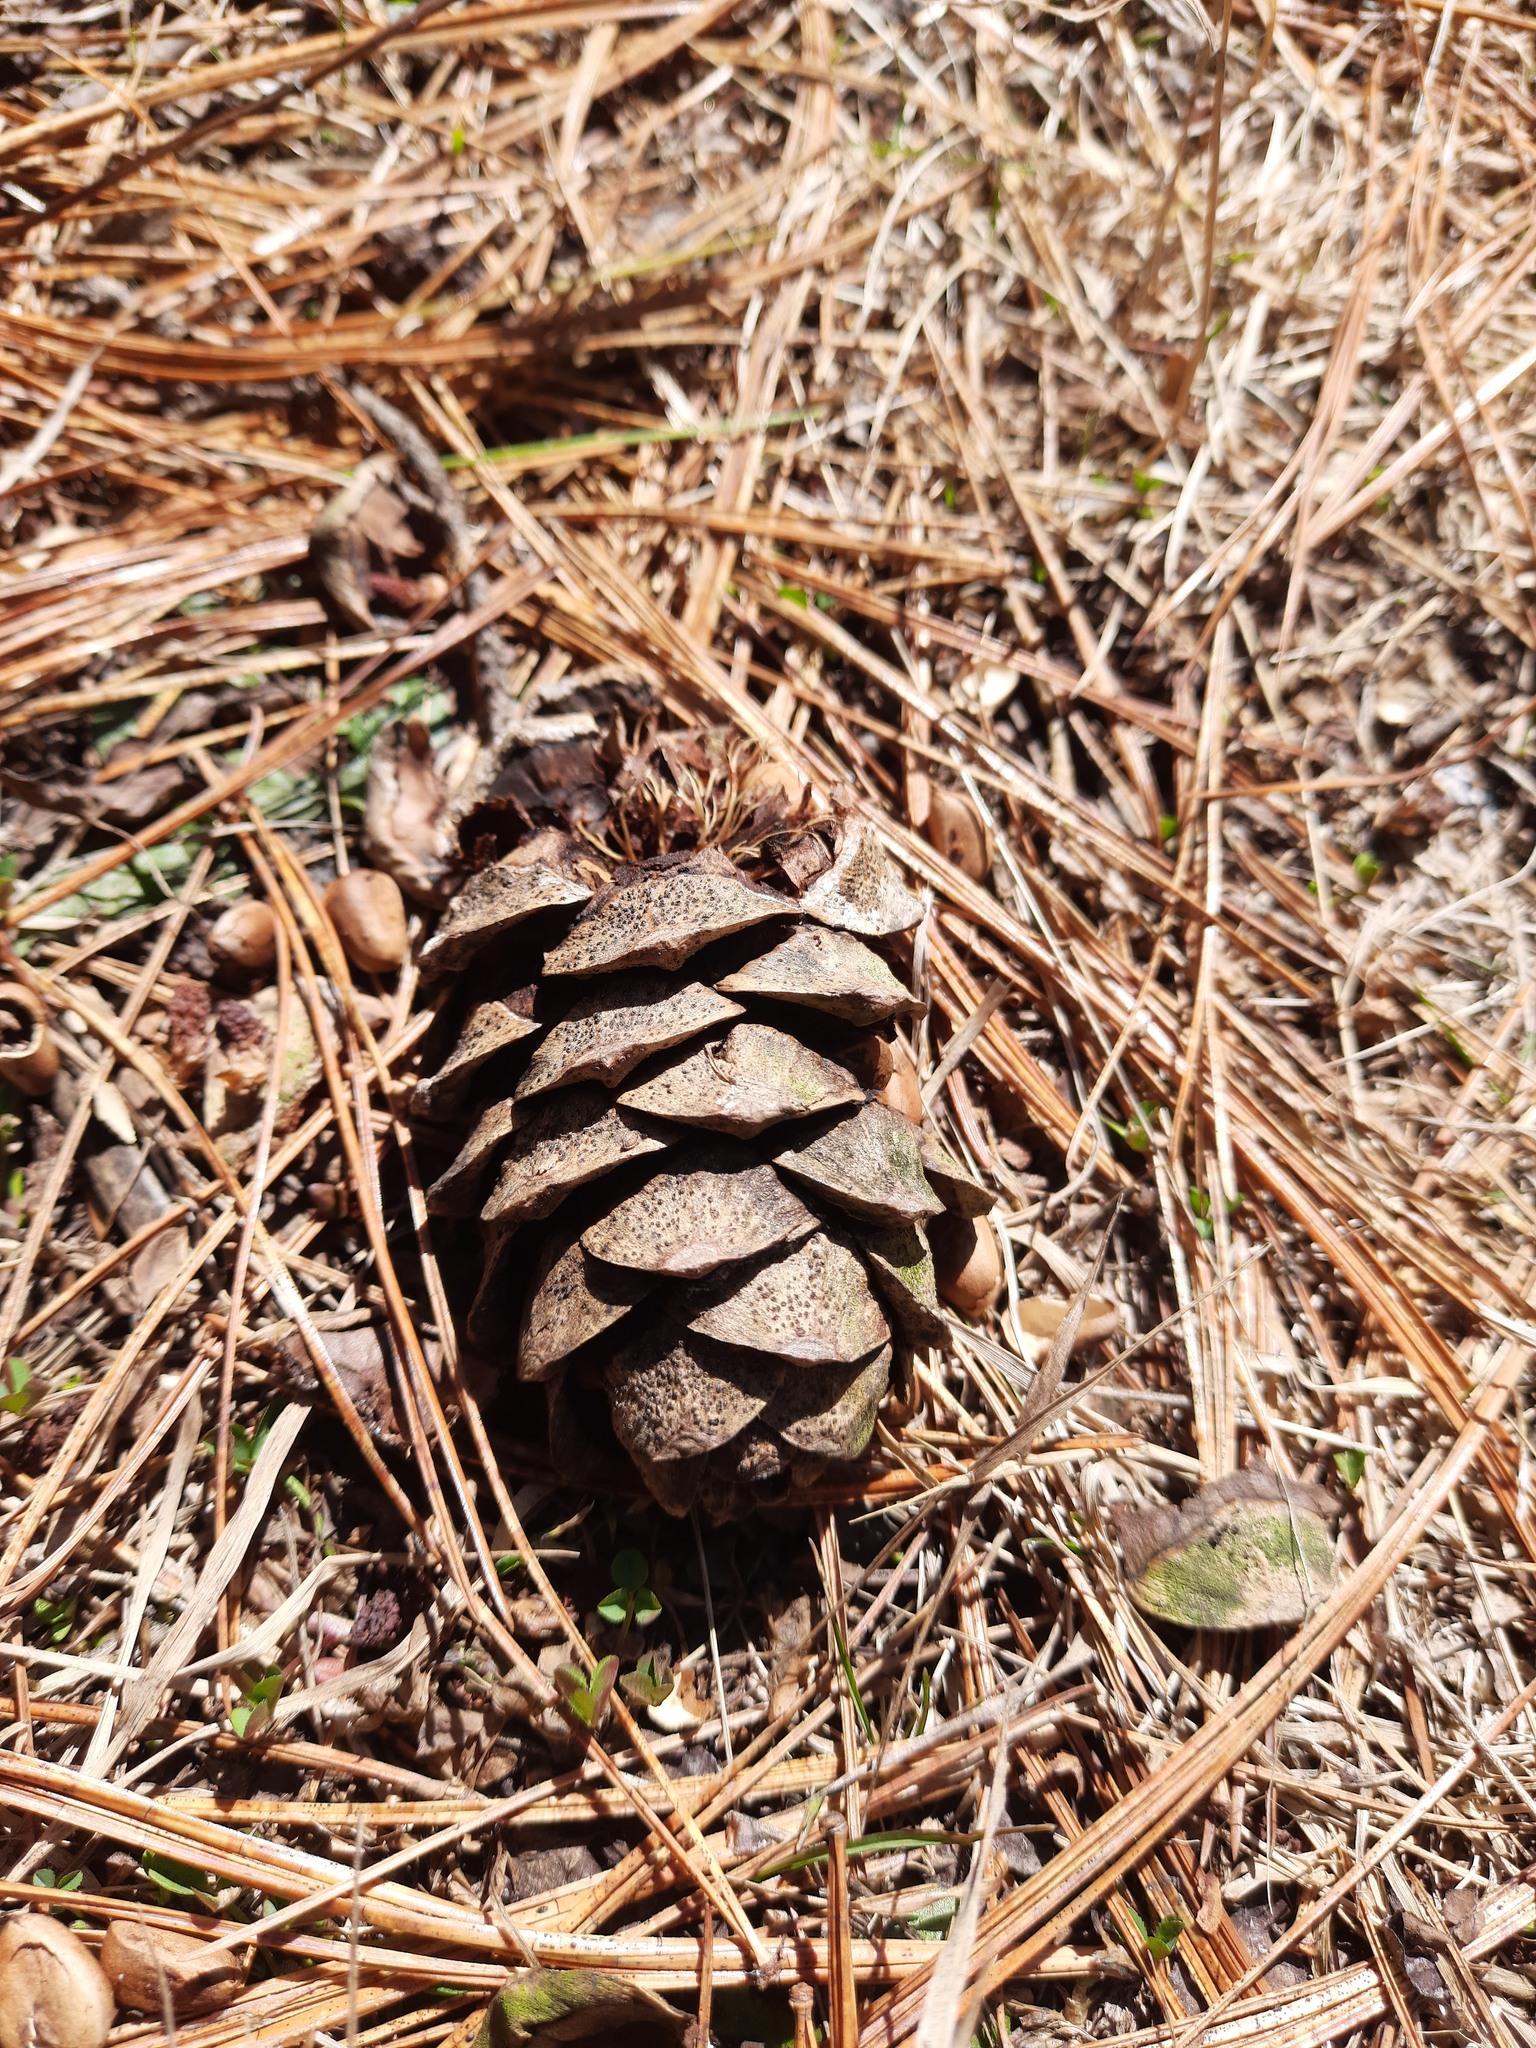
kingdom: Plantae
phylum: Tracheophyta
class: Pinopsida
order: Pinales
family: Pinaceae
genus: Pinus
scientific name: Pinus sibirica
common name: Siberian pine
